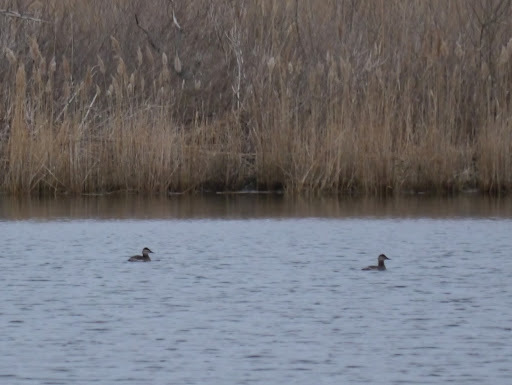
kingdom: Animalia
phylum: Chordata
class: Aves
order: Anseriformes
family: Anatidae
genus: Oxyura
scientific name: Oxyura jamaicensis
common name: Ruddy duck
